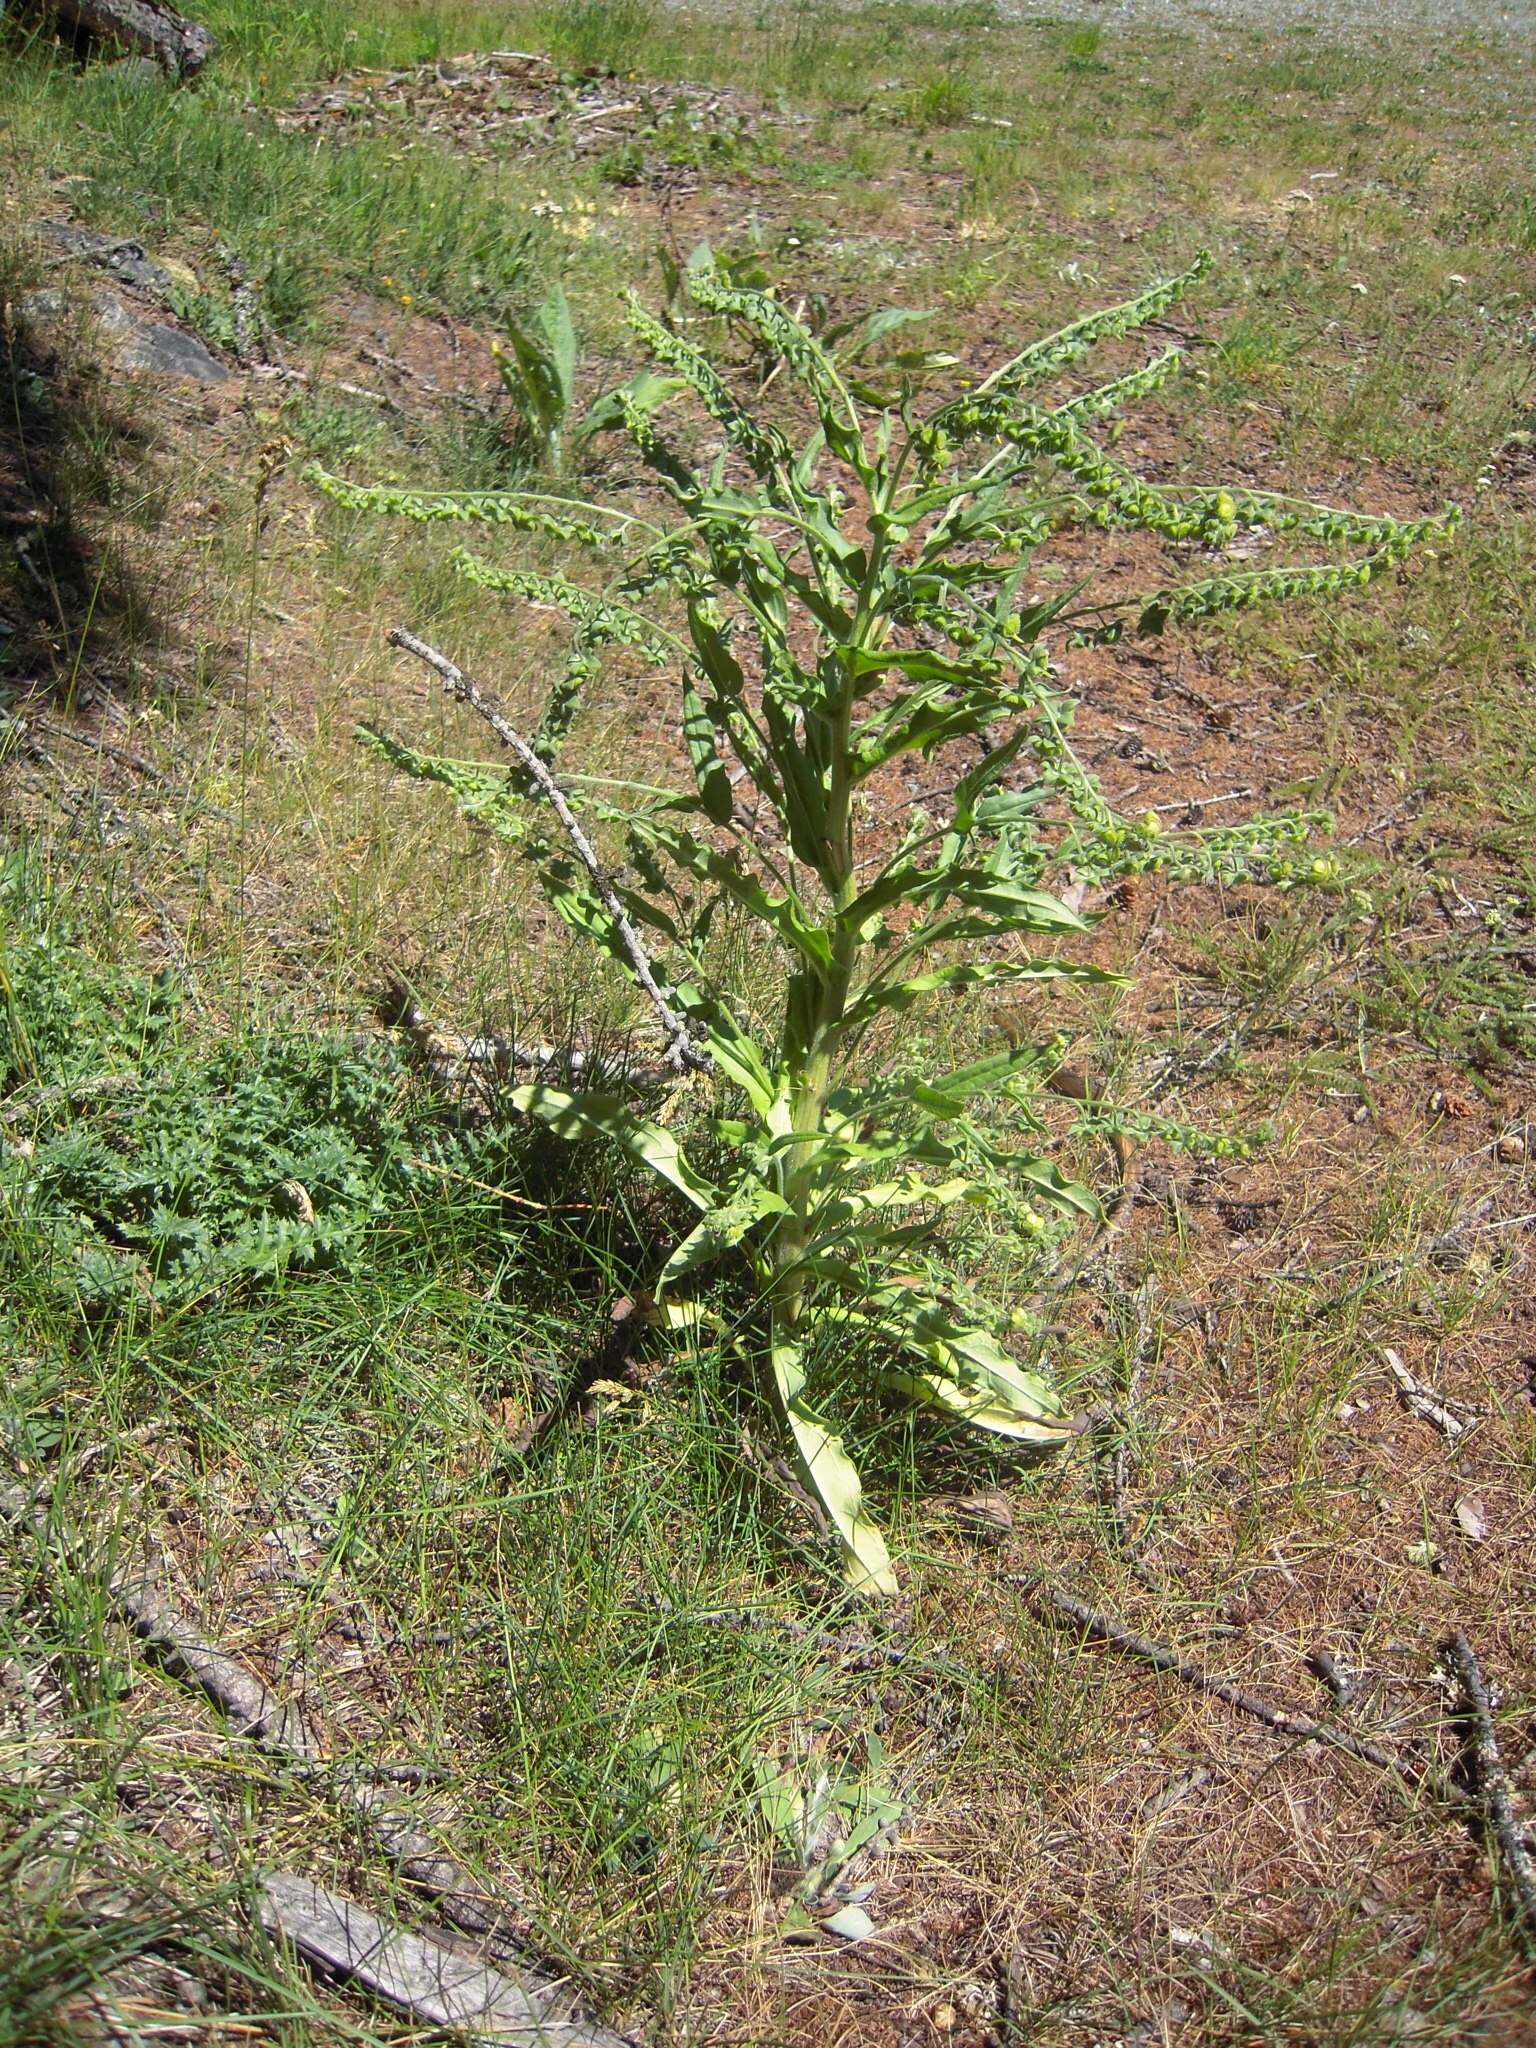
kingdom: Plantae
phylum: Tracheophyta
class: Magnoliopsida
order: Boraginales
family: Boraginaceae
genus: Cynoglossum
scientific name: Cynoglossum officinale
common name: Hound's-tongue
